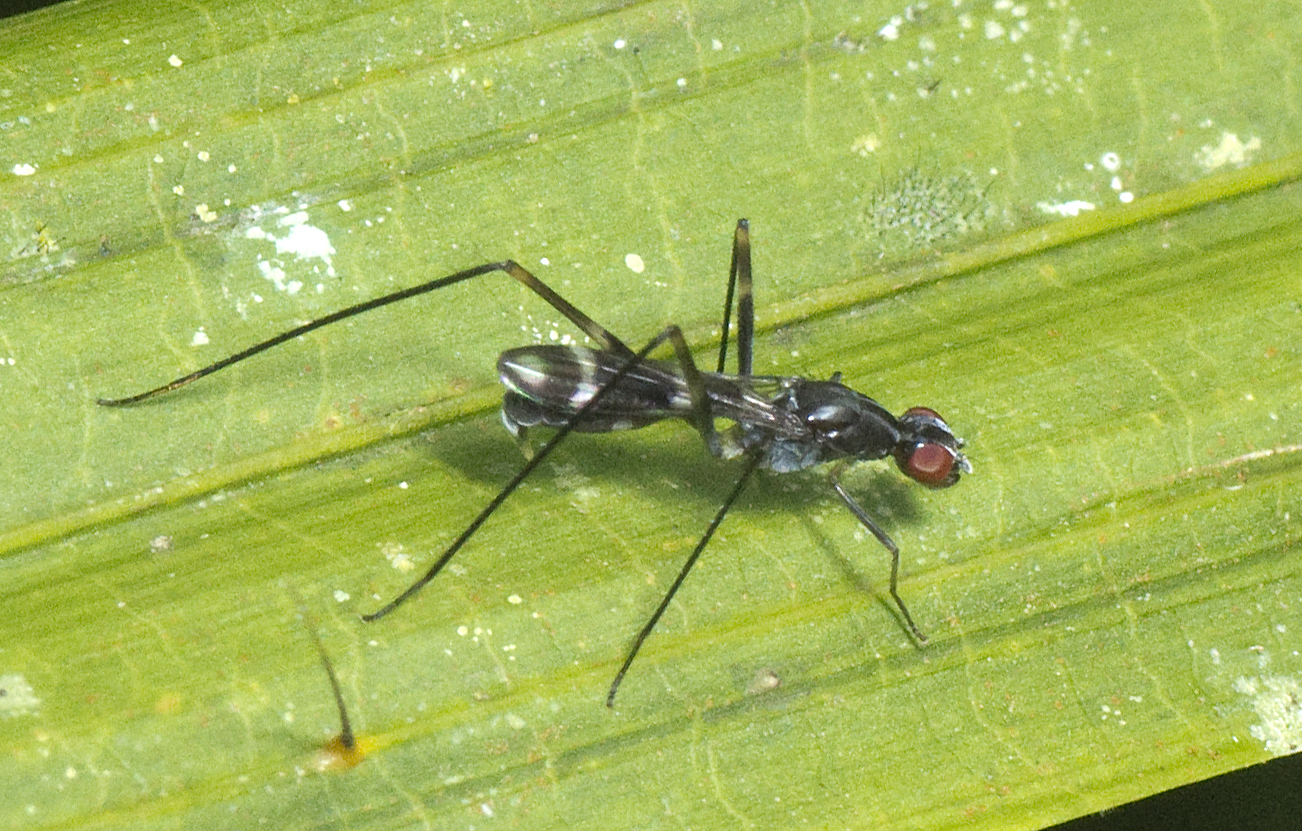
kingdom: Animalia
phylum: Arthropoda
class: Insecta
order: Diptera
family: Micropezidae
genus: Metopochetus
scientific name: Metopochetus impar
